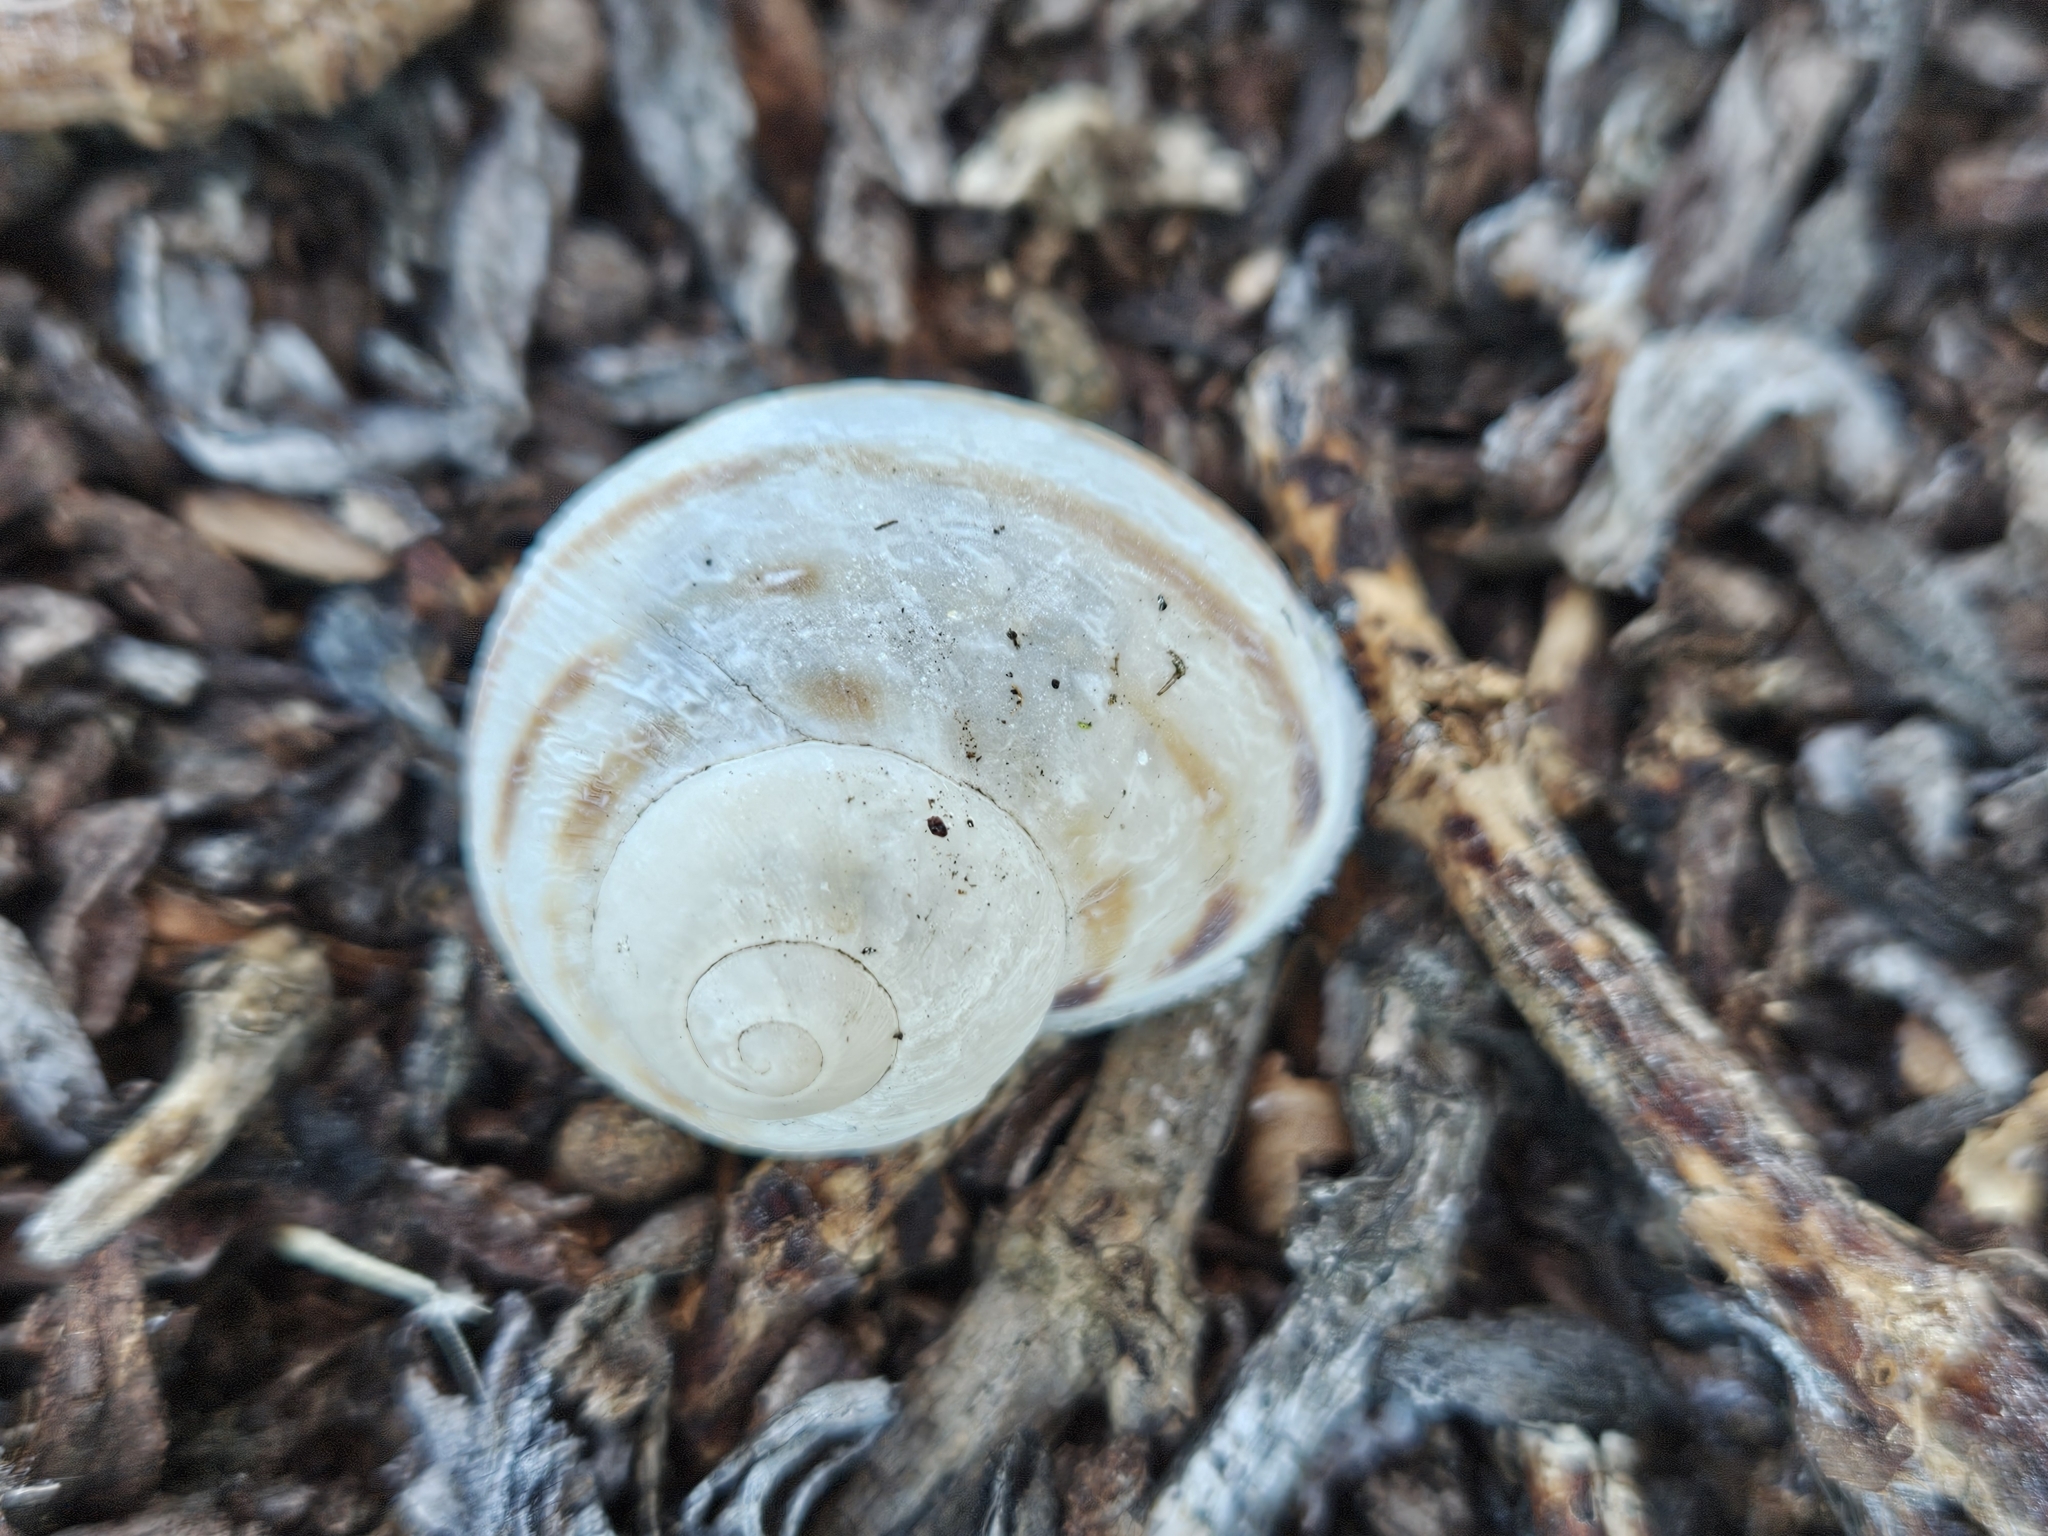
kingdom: Animalia
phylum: Mollusca
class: Gastropoda
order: Stylommatophora
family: Helicidae
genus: Otala
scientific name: Otala lactea
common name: Milk snail
